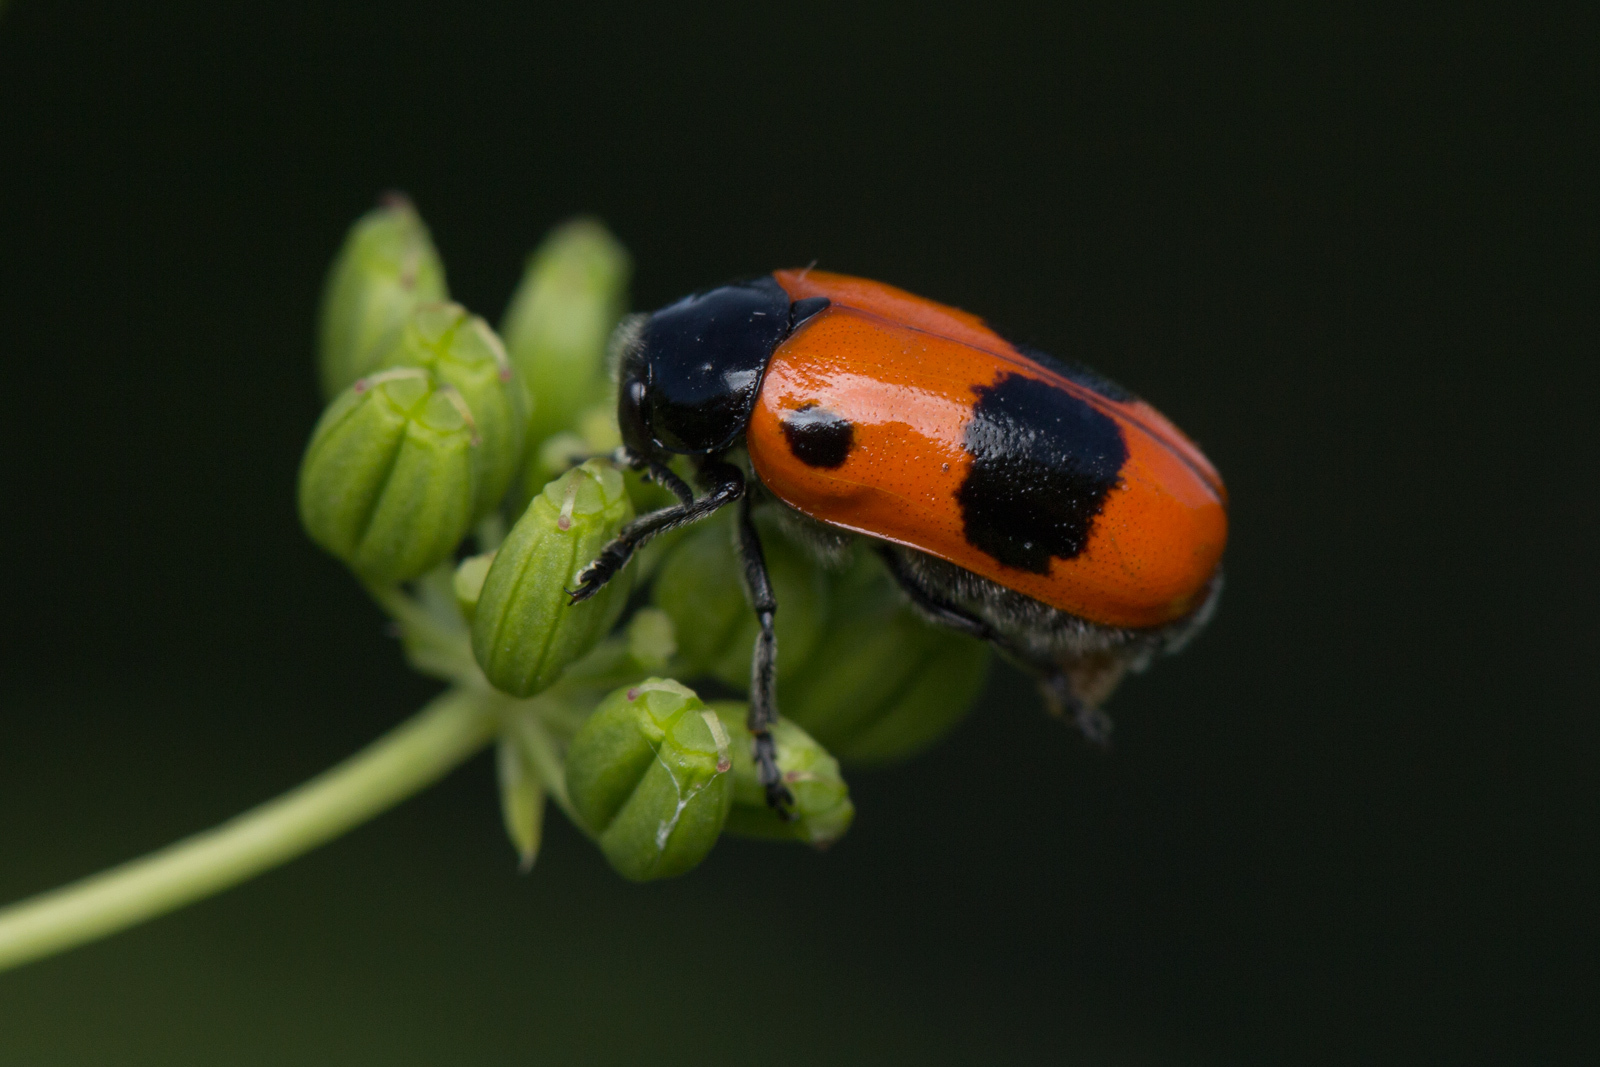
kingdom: Animalia
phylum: Arthropoda
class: Insecta
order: Coleoptera
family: Chrysomelidae
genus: Clytra
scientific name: Clytra laeviuscula
